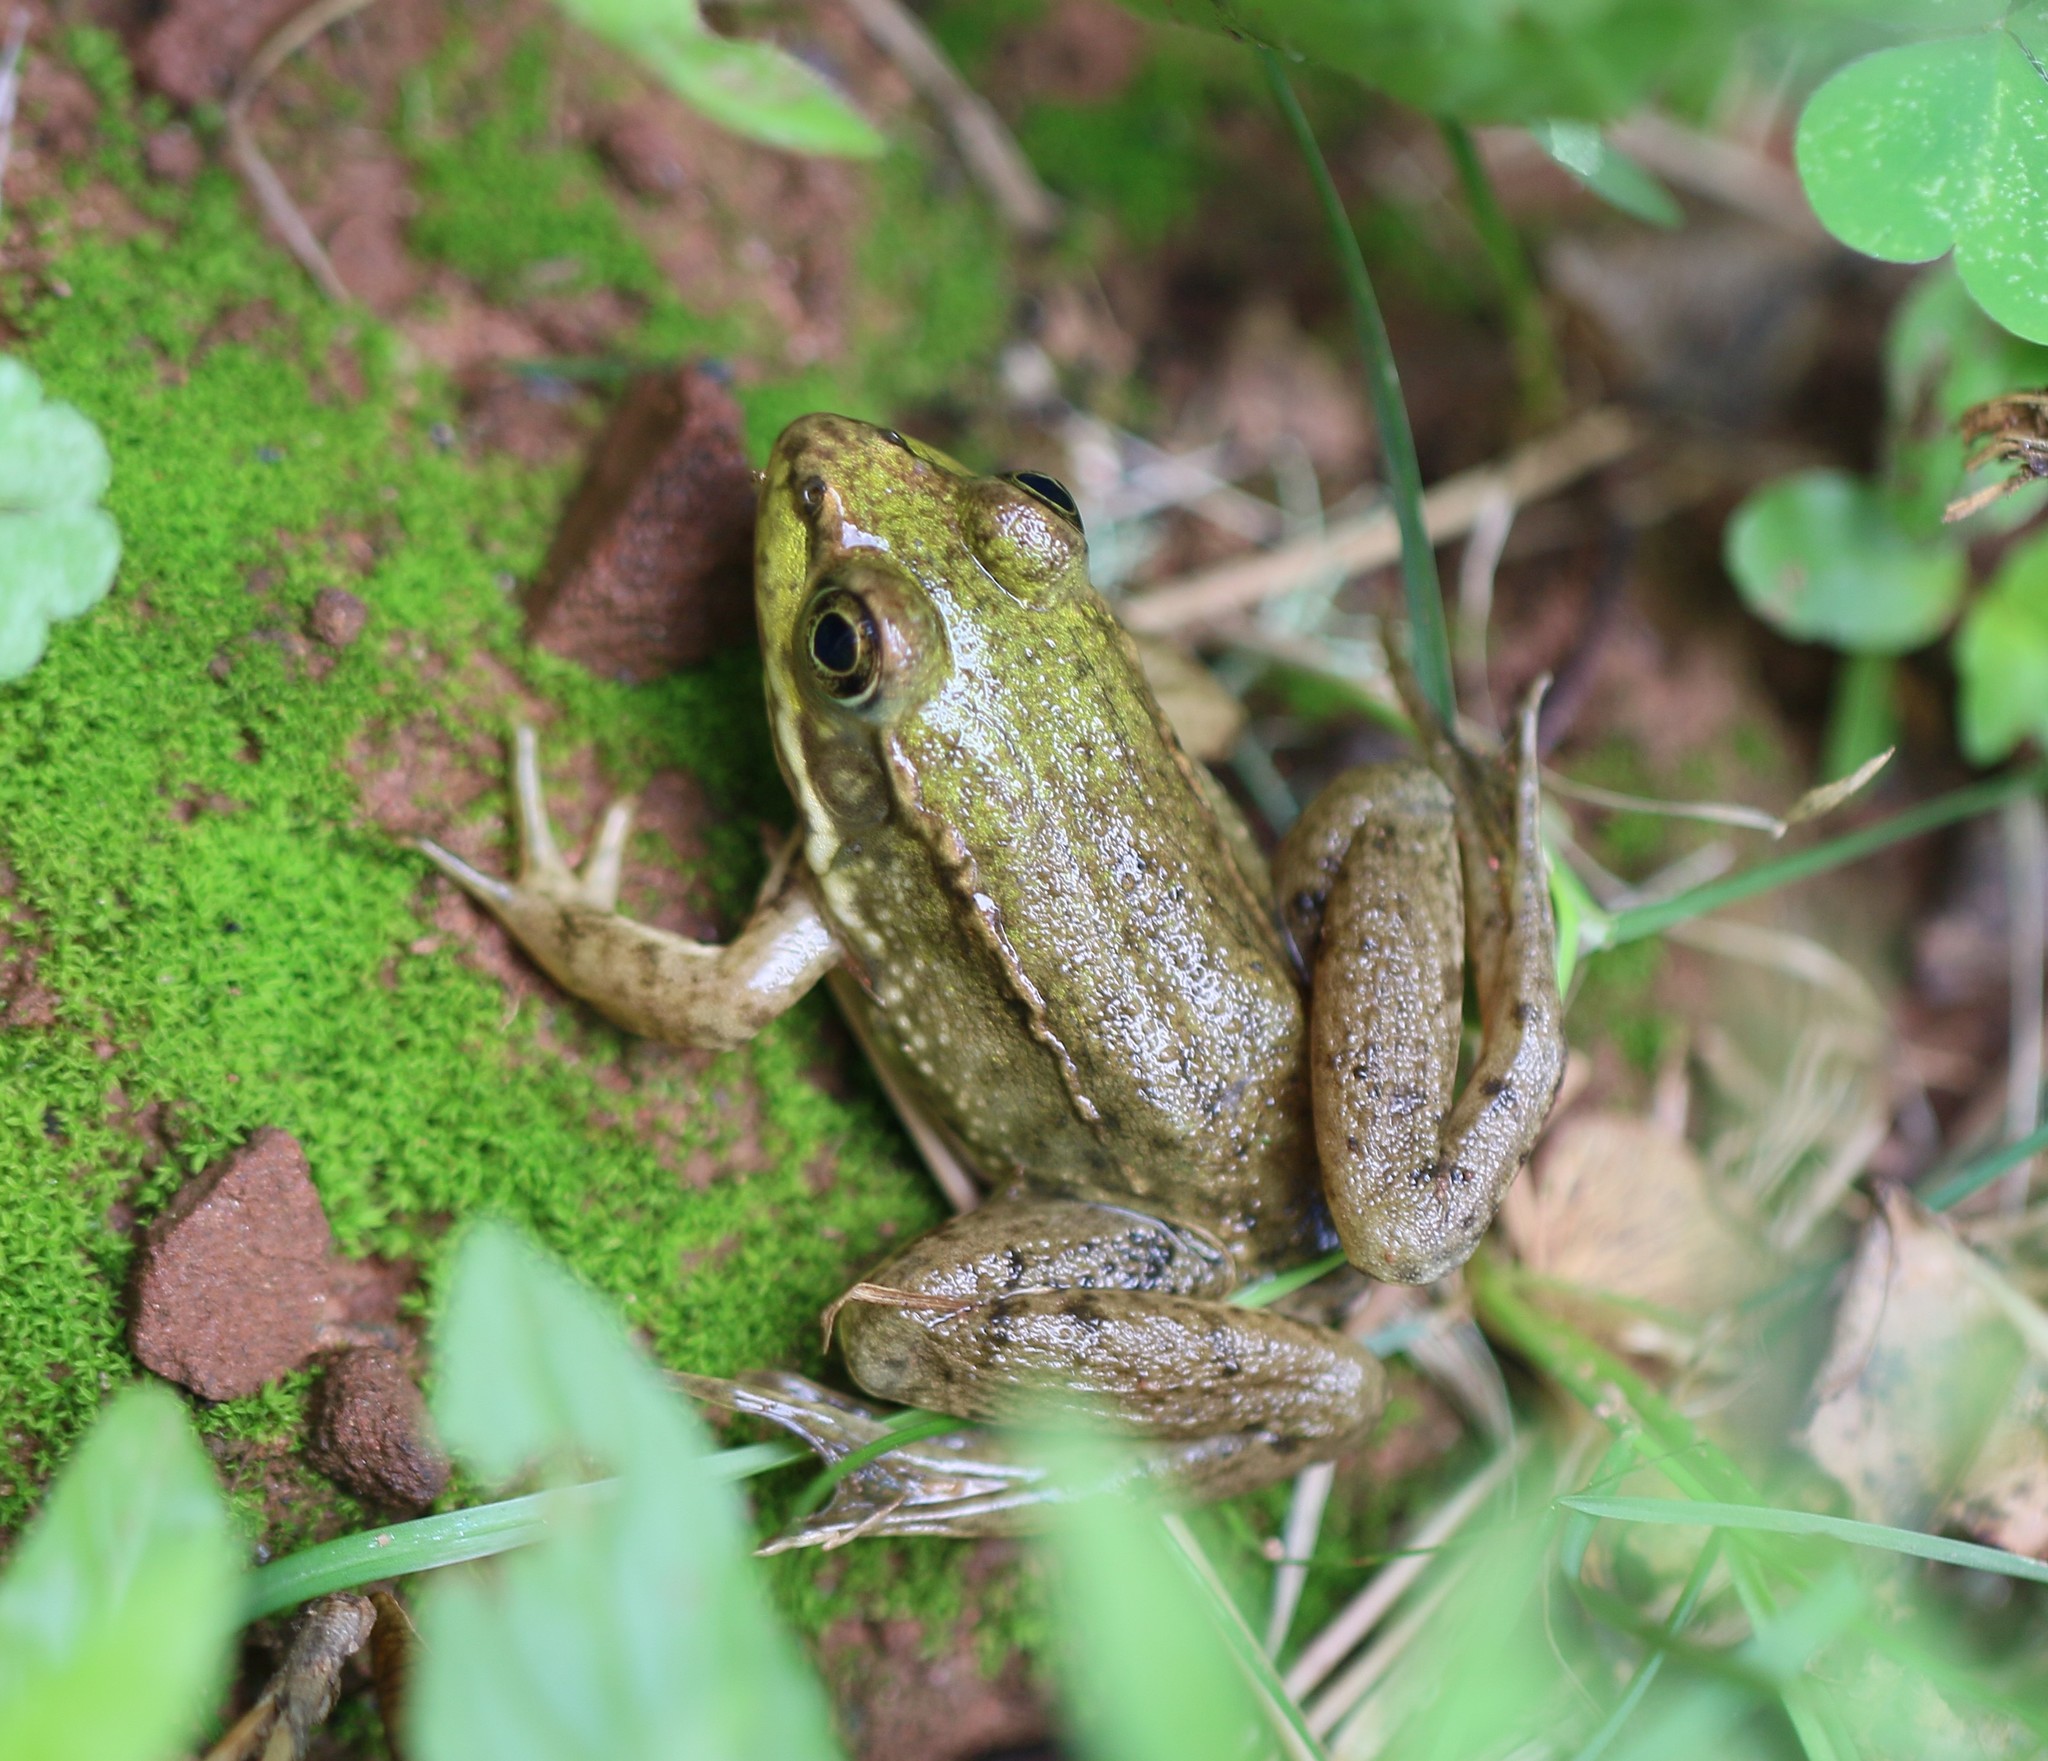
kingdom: Animalia
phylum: Chordata
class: Amphibia
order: Anura
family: Ranidae
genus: Lithobates
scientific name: Lithobates clamitans
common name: Green frog
